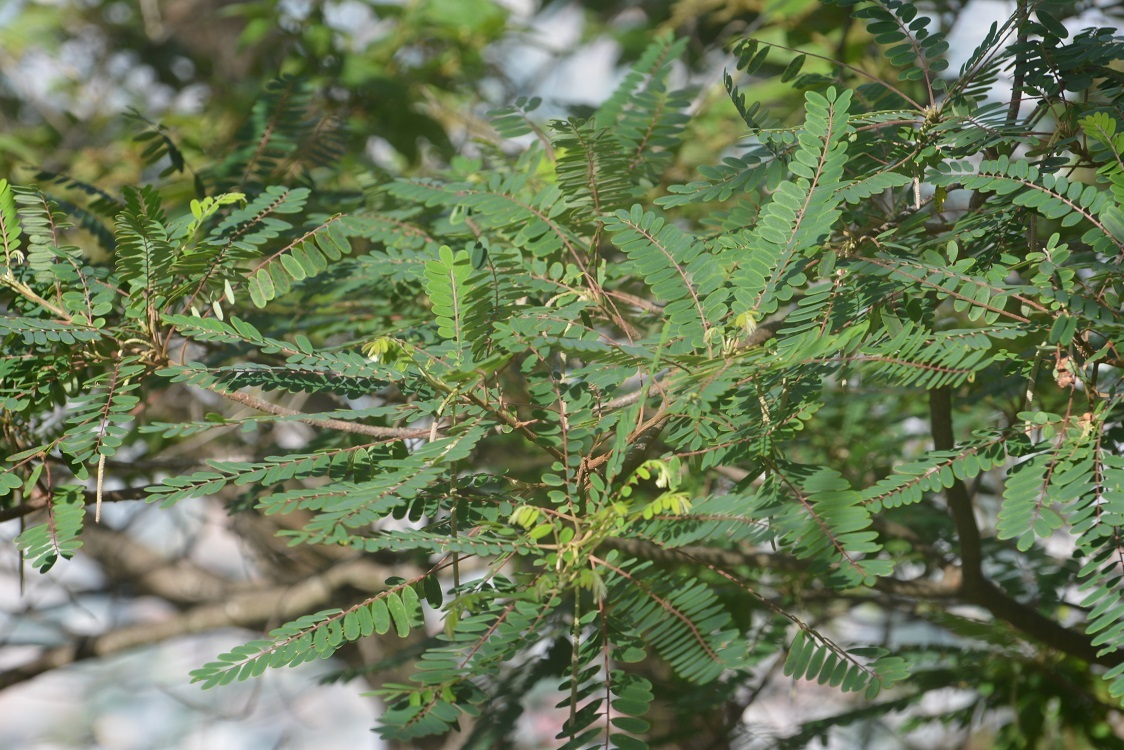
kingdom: Plantae
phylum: Tracheophyta
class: Magnoliopsida
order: Picramniales
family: Picramniaceae
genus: Alvaradoa
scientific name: Alvaradoa amorphoides
